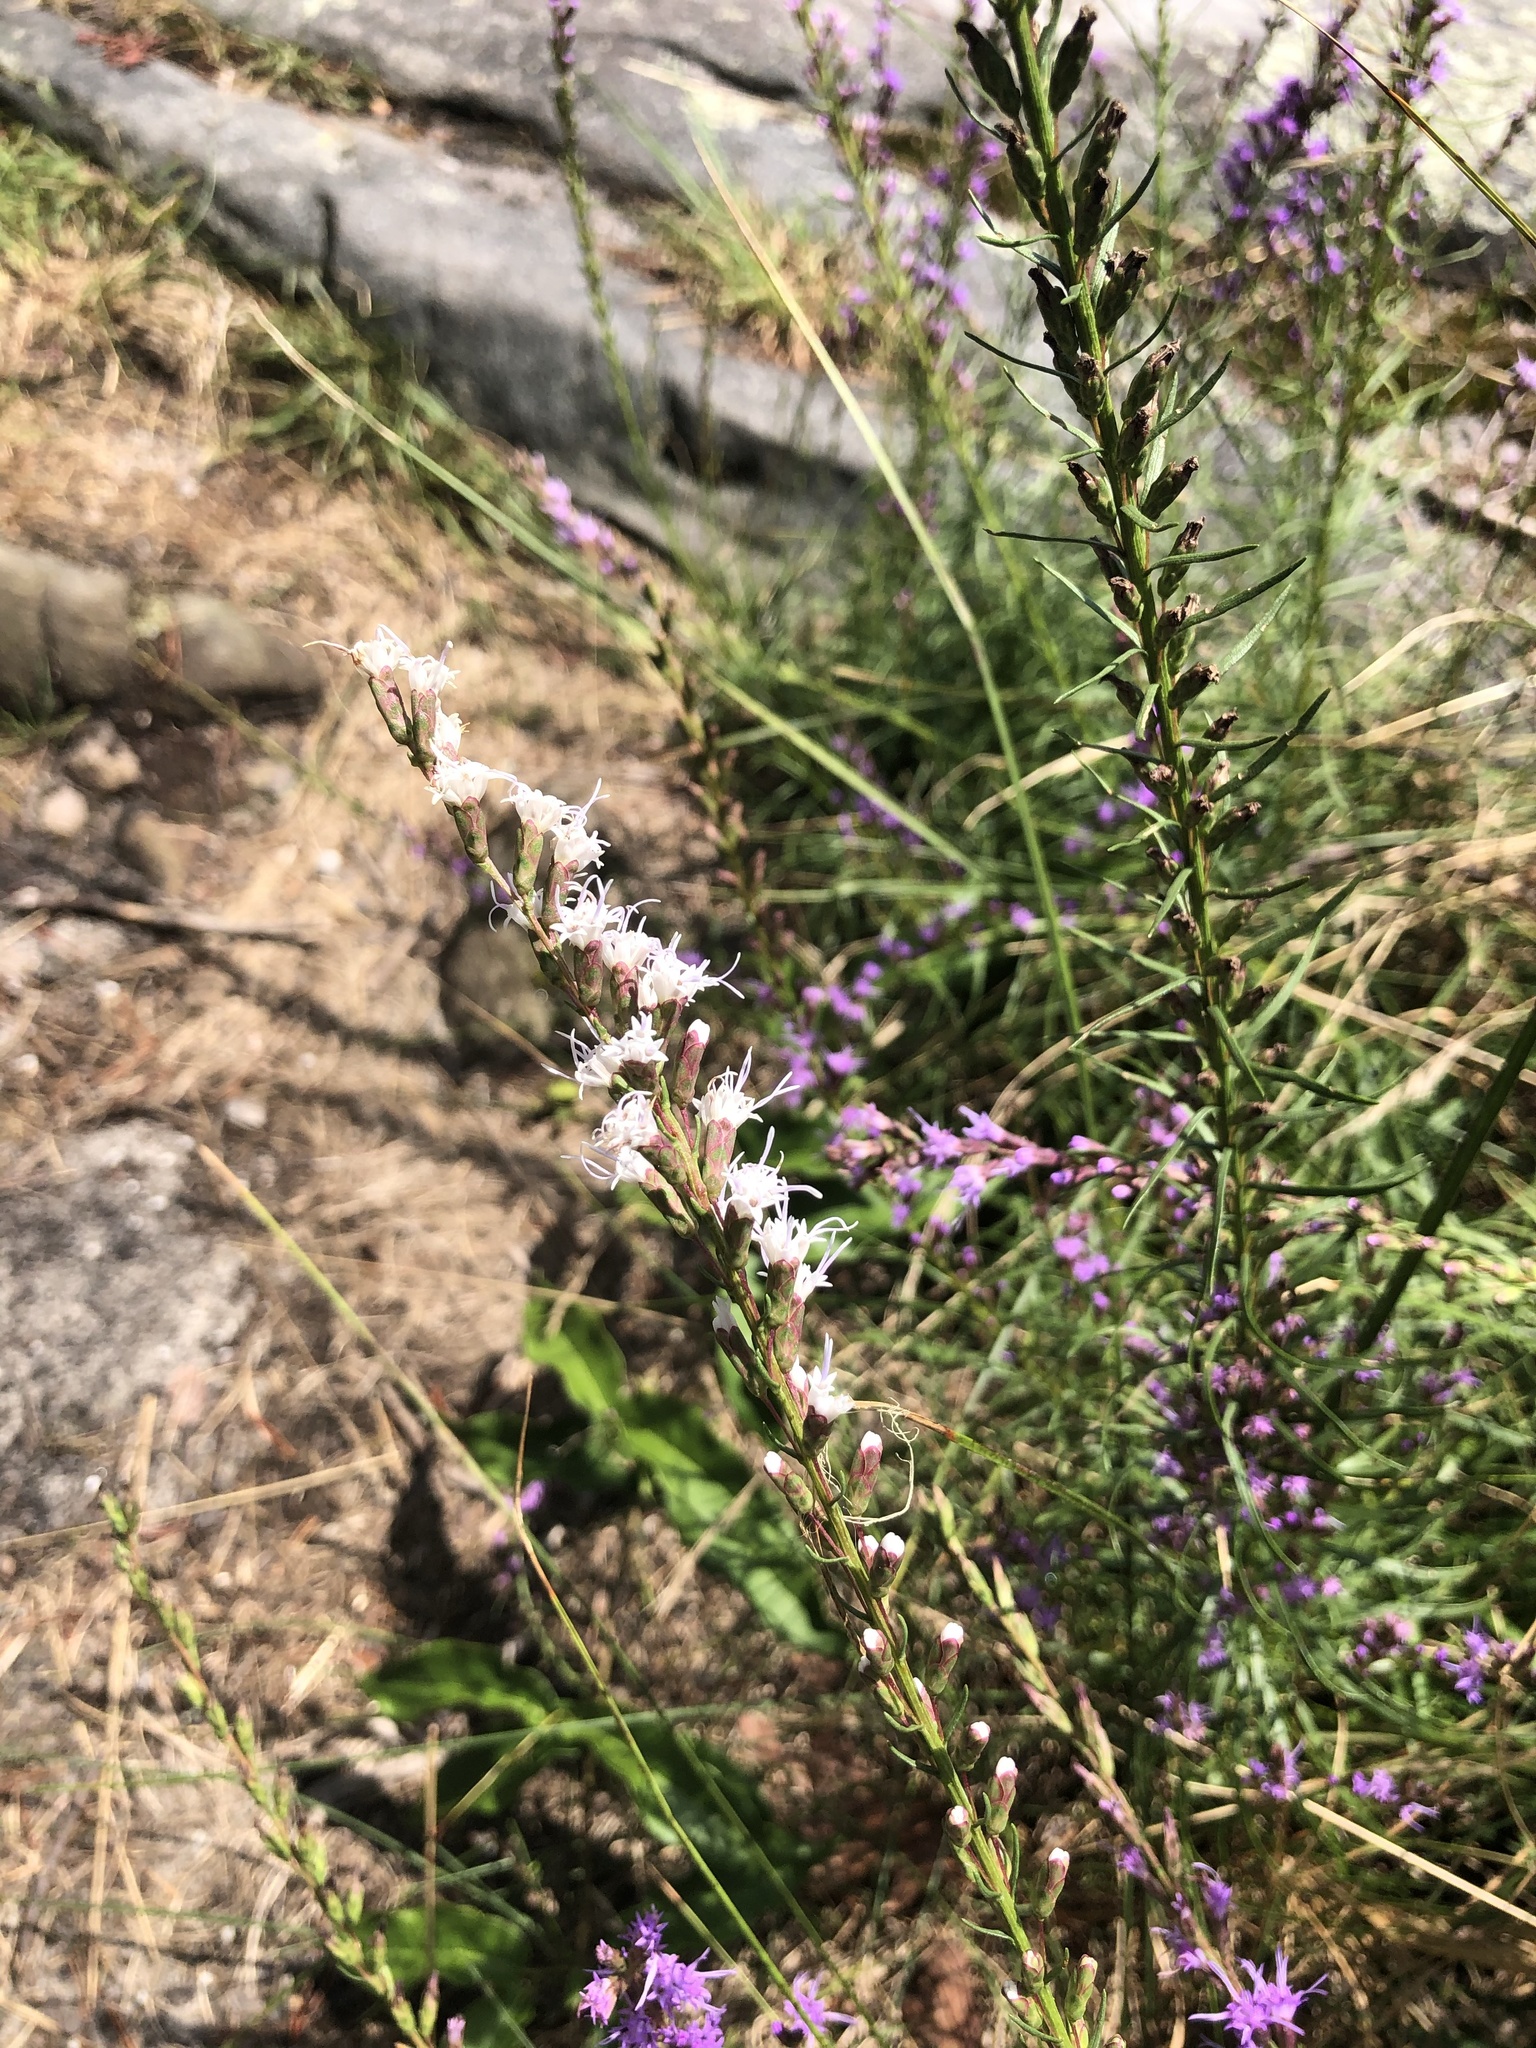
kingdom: Plantae
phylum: Tracheophyta
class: Magnoliopsida
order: Asterales
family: Asteraceae
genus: Liatris
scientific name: Liatris microcephala
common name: Small-head gayfeather
